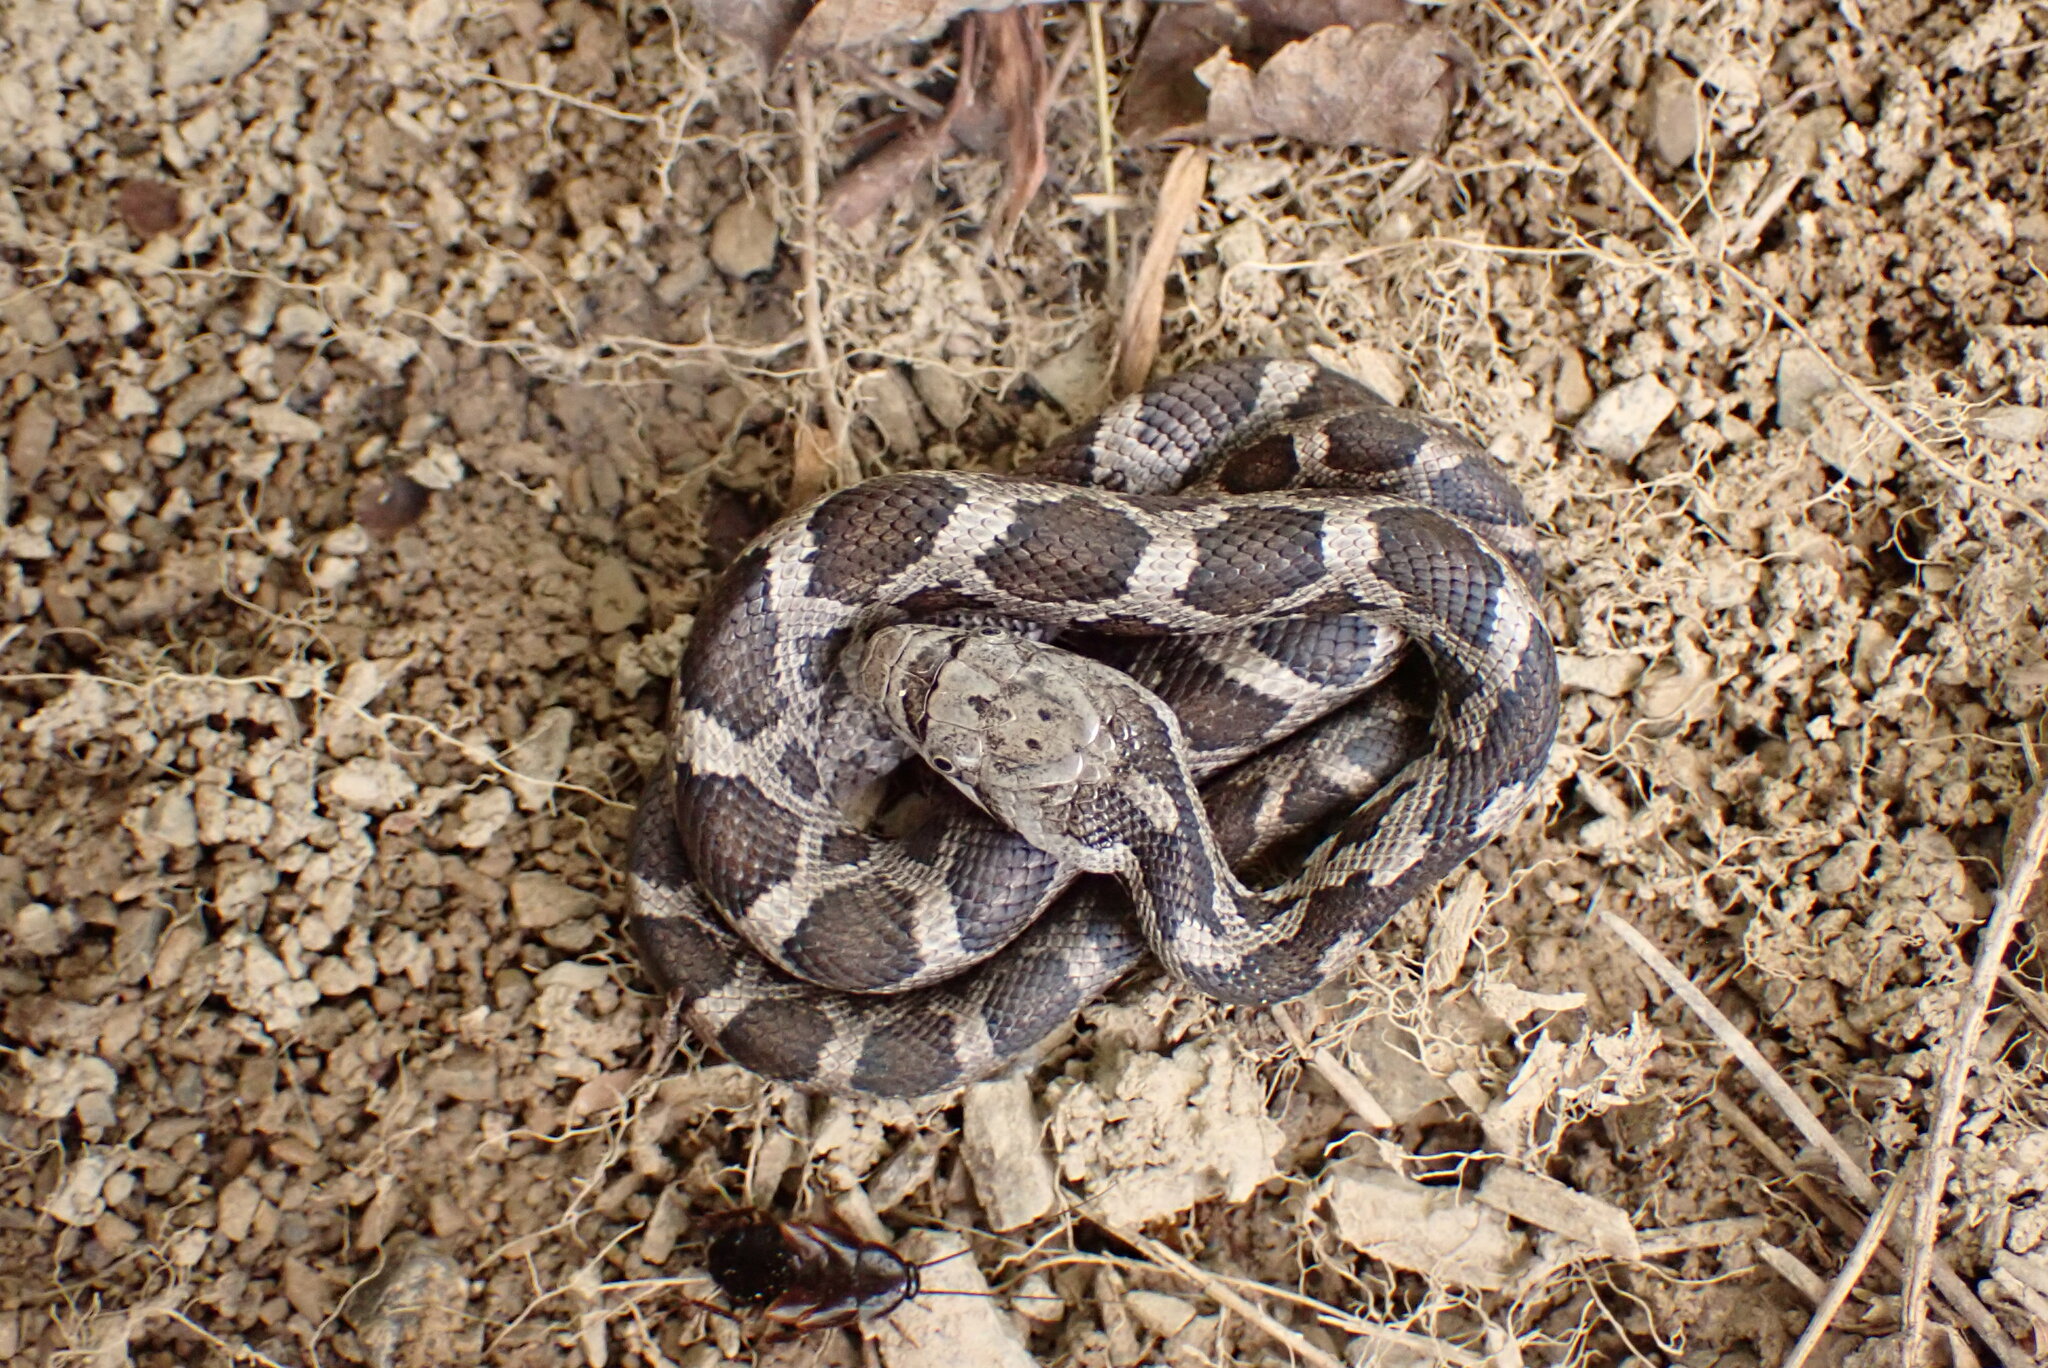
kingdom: Animalia
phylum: Chordata
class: Squamata
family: Colubridae
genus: Pantherophis
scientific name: Pantherophis
